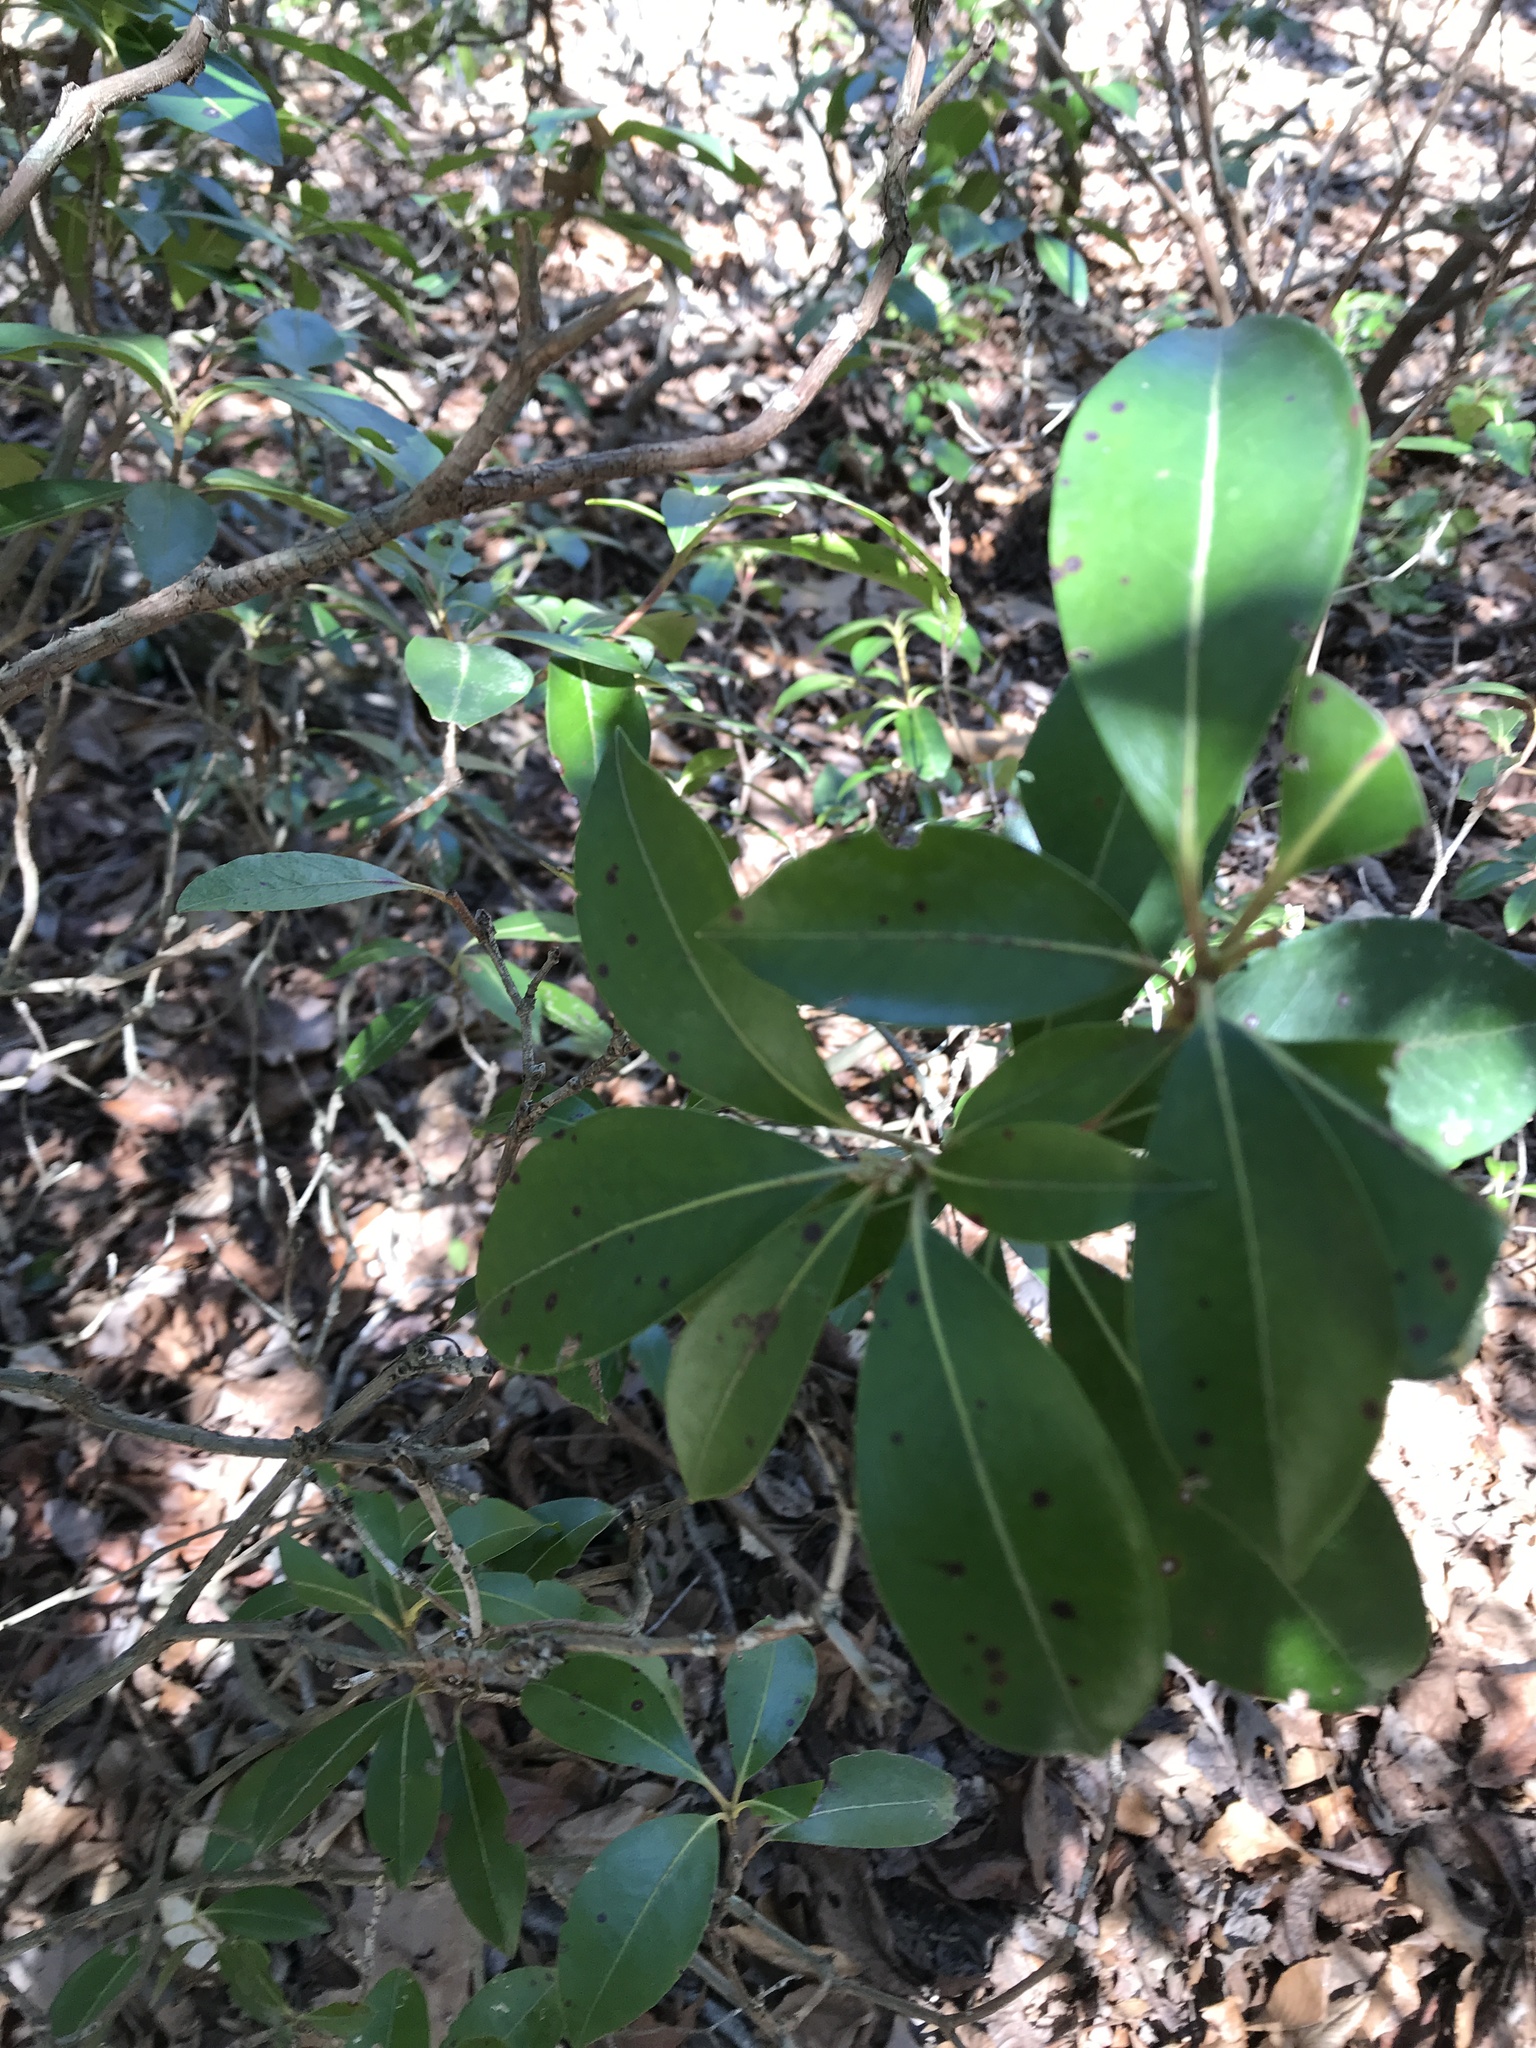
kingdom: Plantae
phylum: Tracheophyta
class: Magnoliopsida
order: Ericales
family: Ericaceae
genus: Kalmia
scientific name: Kalmia latifolia
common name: Mountain-laurel
